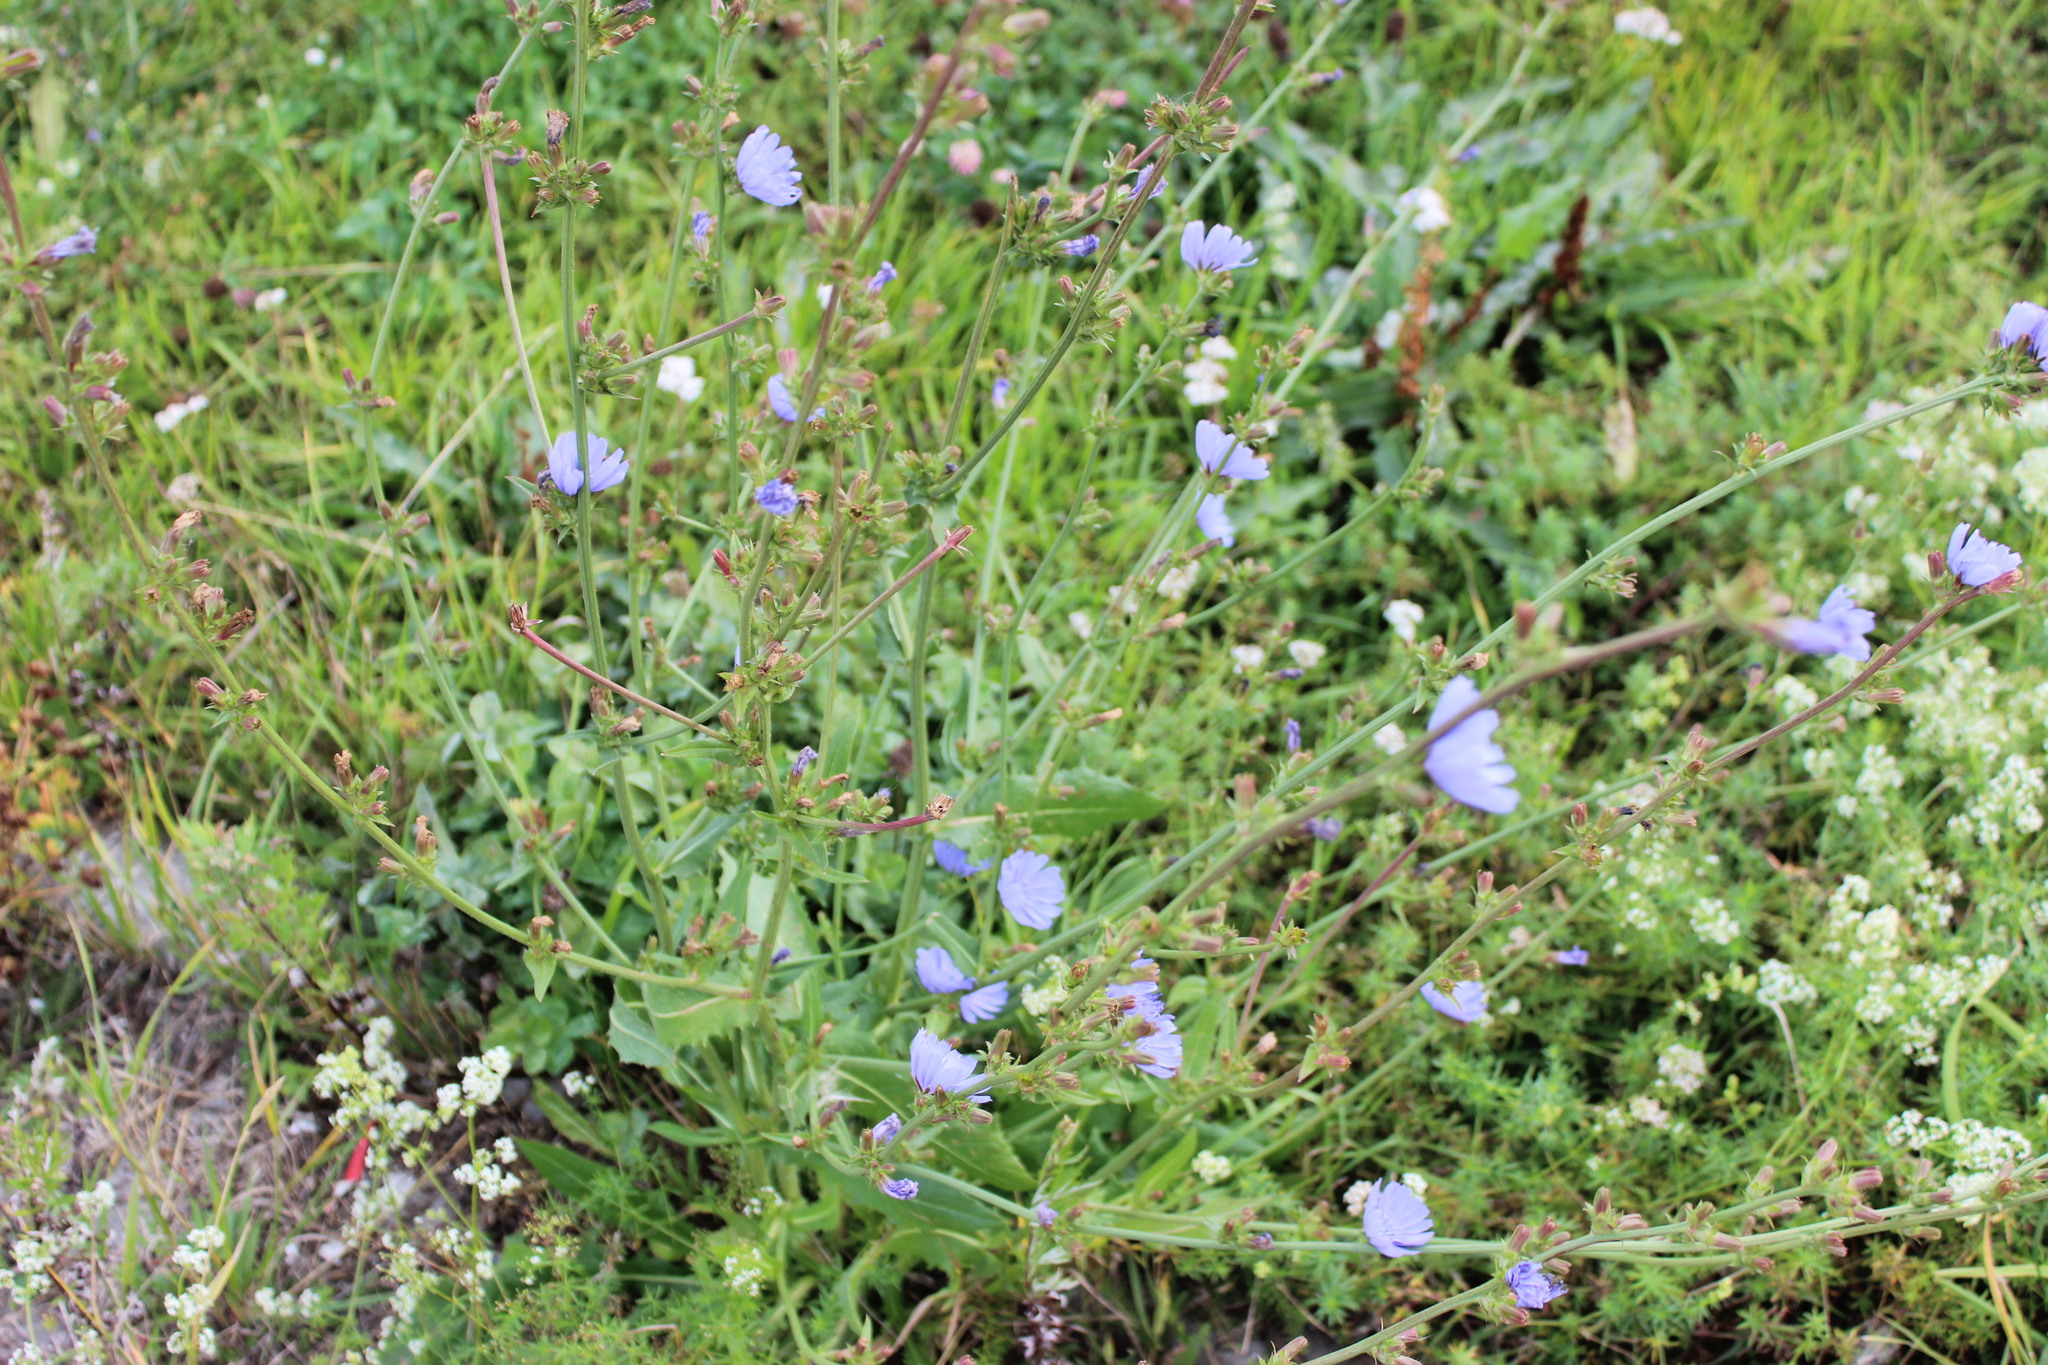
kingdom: Plantae
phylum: Tracheophyta
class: Magnoliopsida
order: Asterales
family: Asteraceae
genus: Cichorium
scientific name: Cichorium intybus
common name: Chicory
